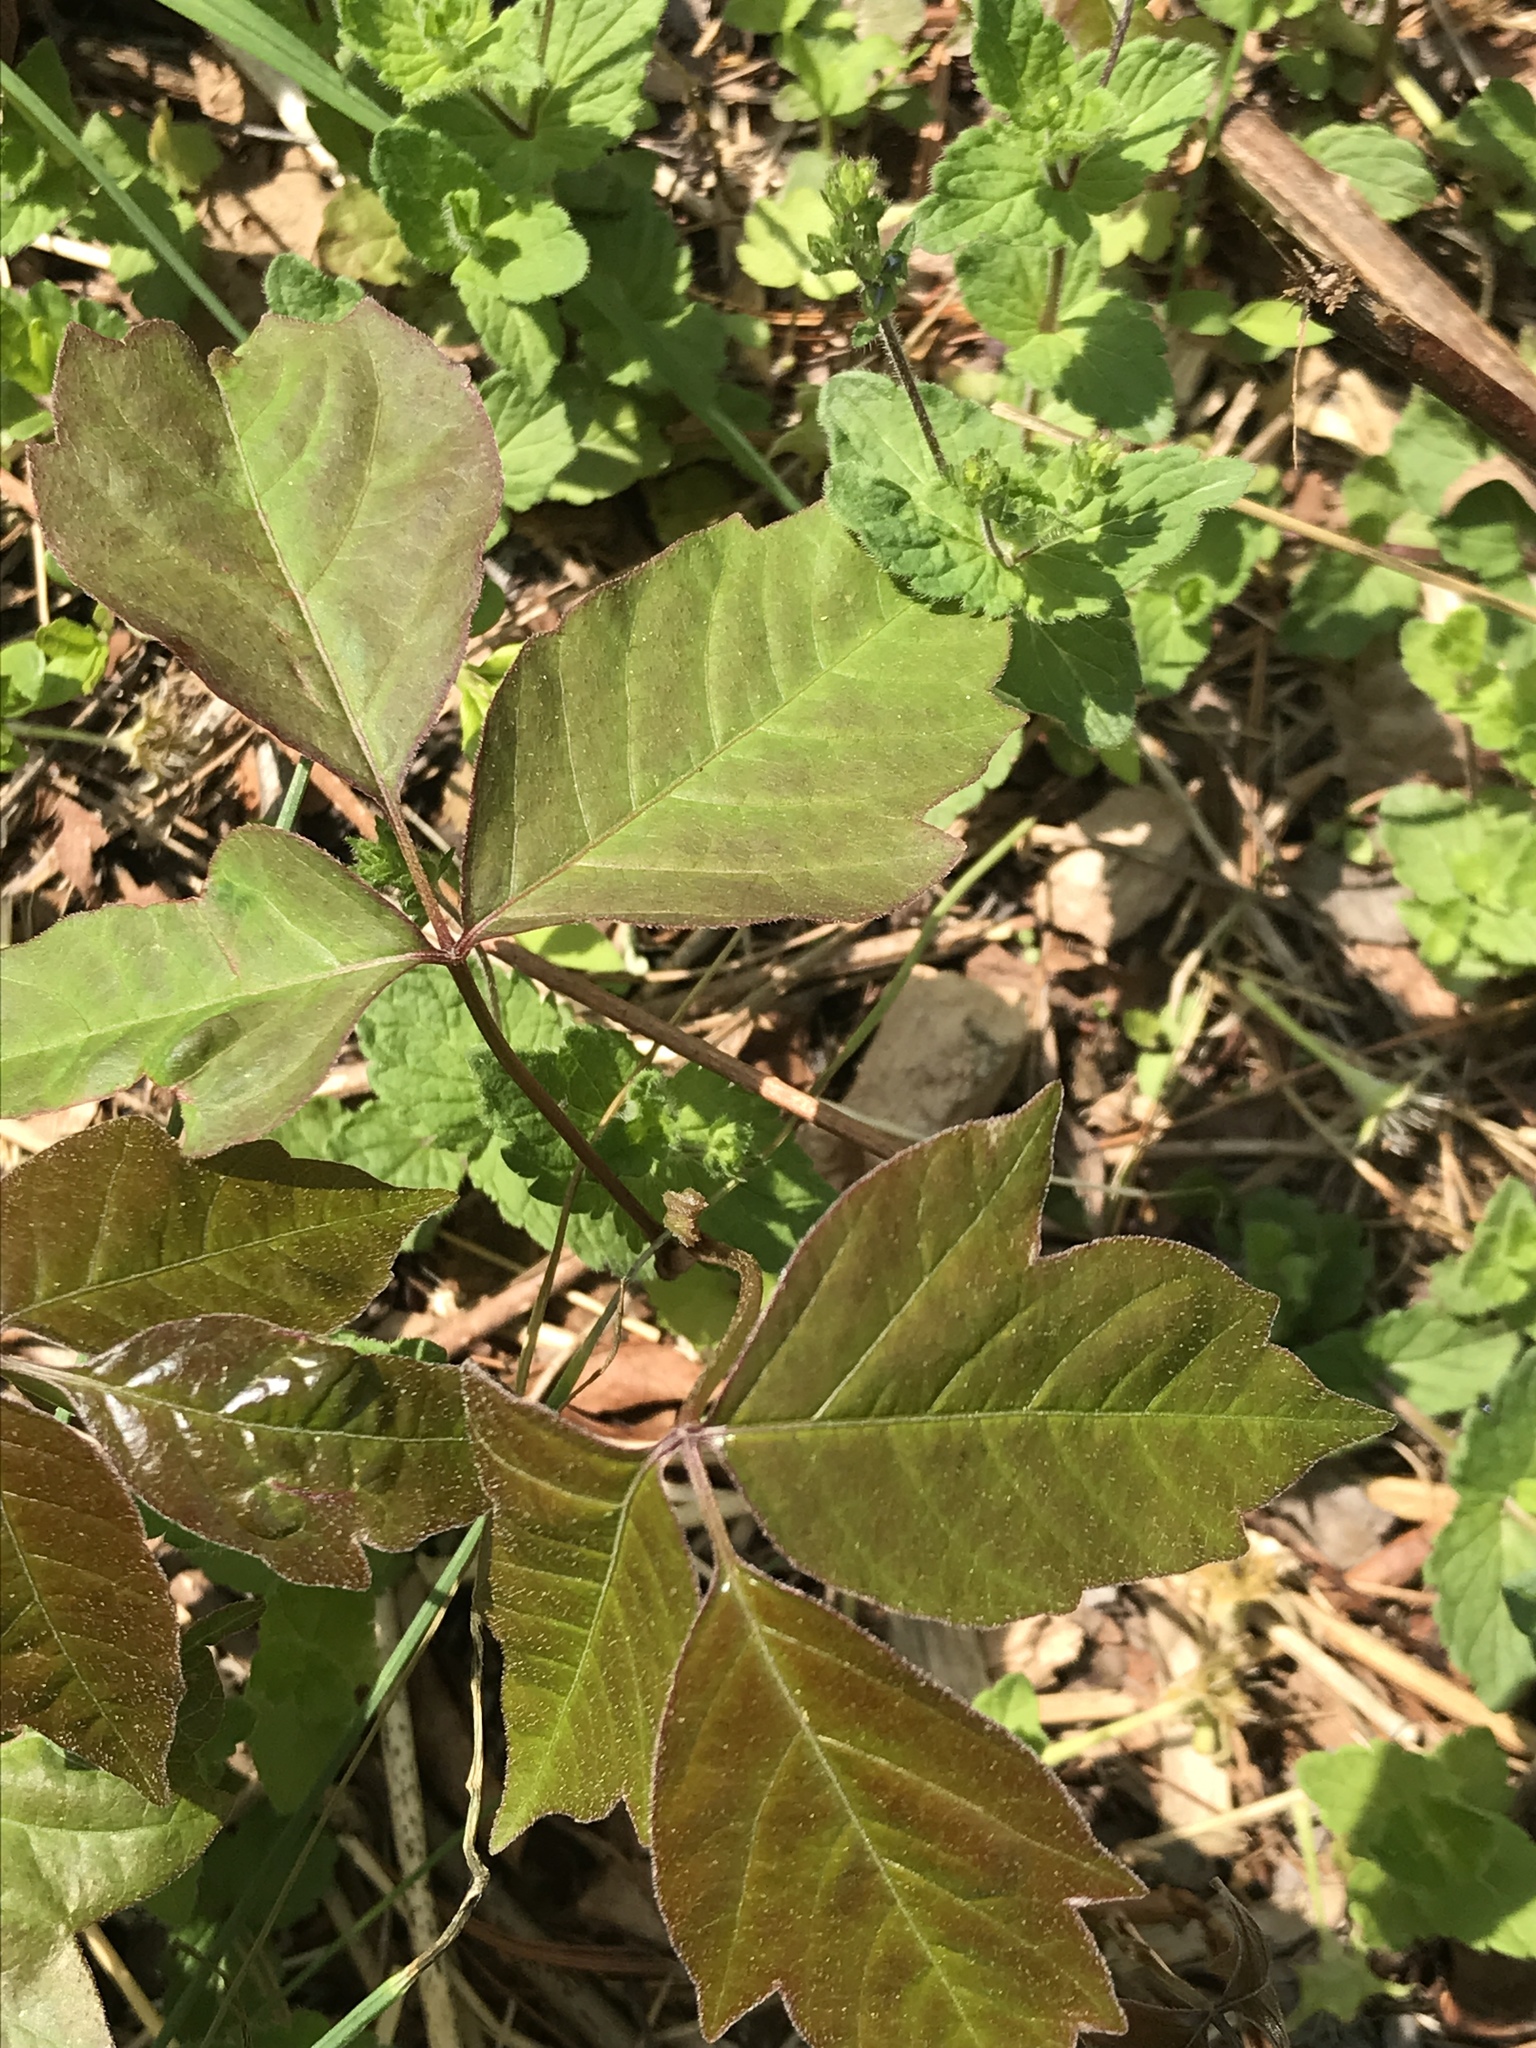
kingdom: Plantae
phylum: Tracheophyta
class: Magnoliopsida
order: Sapindales
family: Anacardiaceae
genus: Toxicodendron
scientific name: Toxicodendron radicans
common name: Poison ivy
